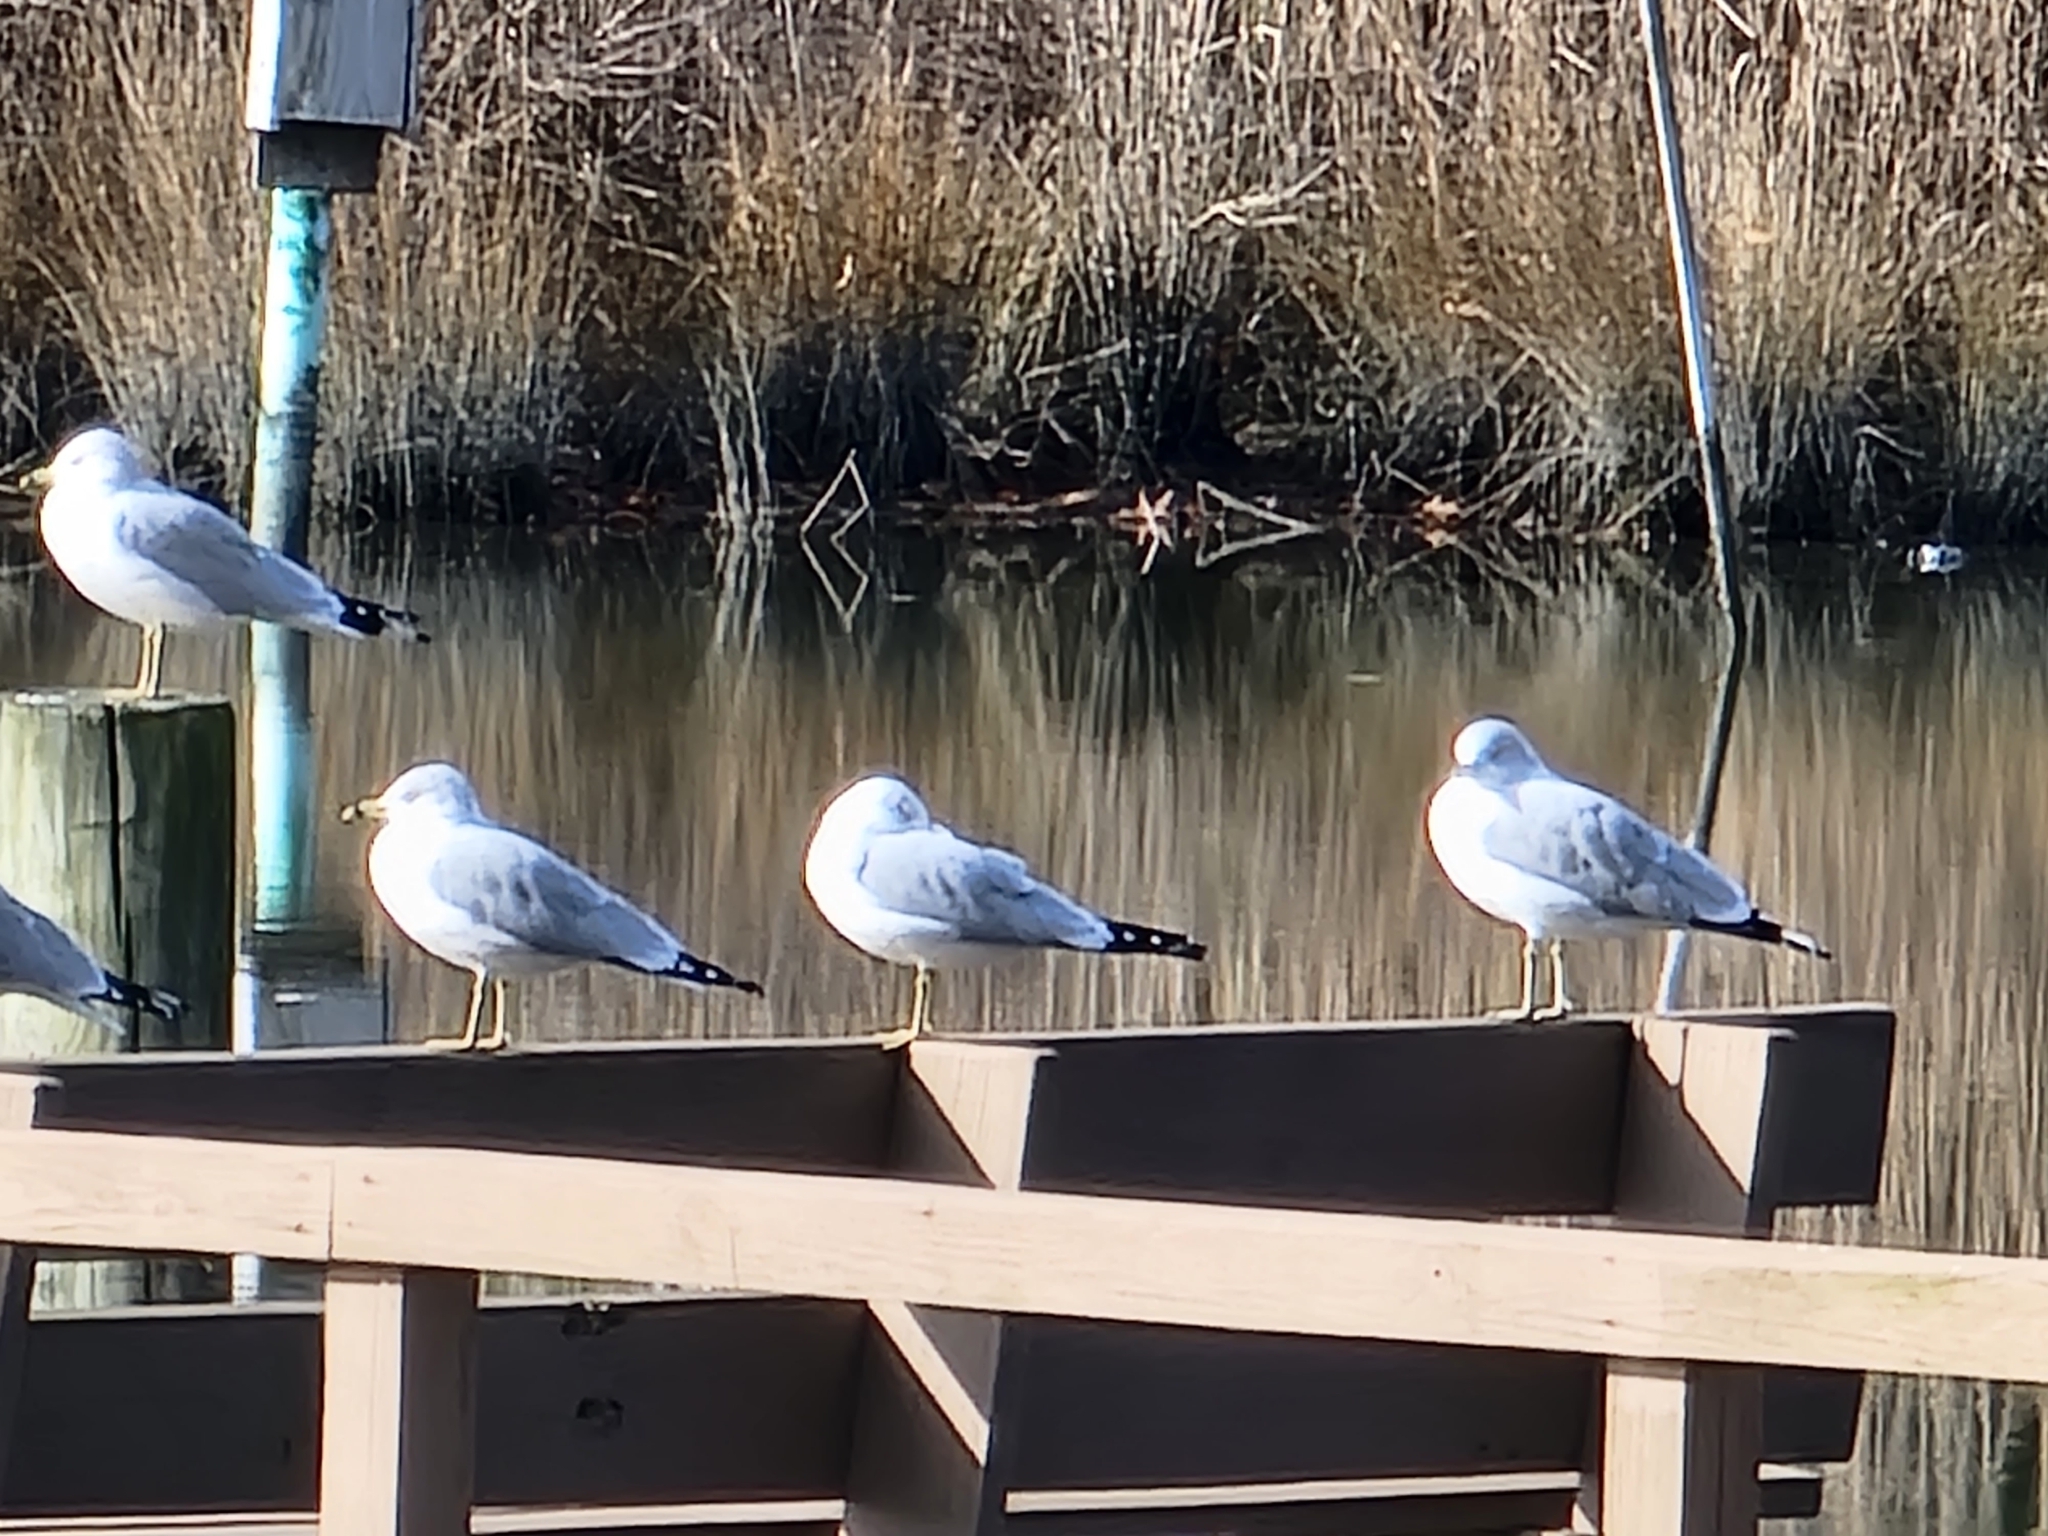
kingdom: Animalia
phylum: Chordata
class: Aves
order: Charadriiformes
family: Laridae
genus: Larus
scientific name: Larus delawarensis
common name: Ring-billed gull
